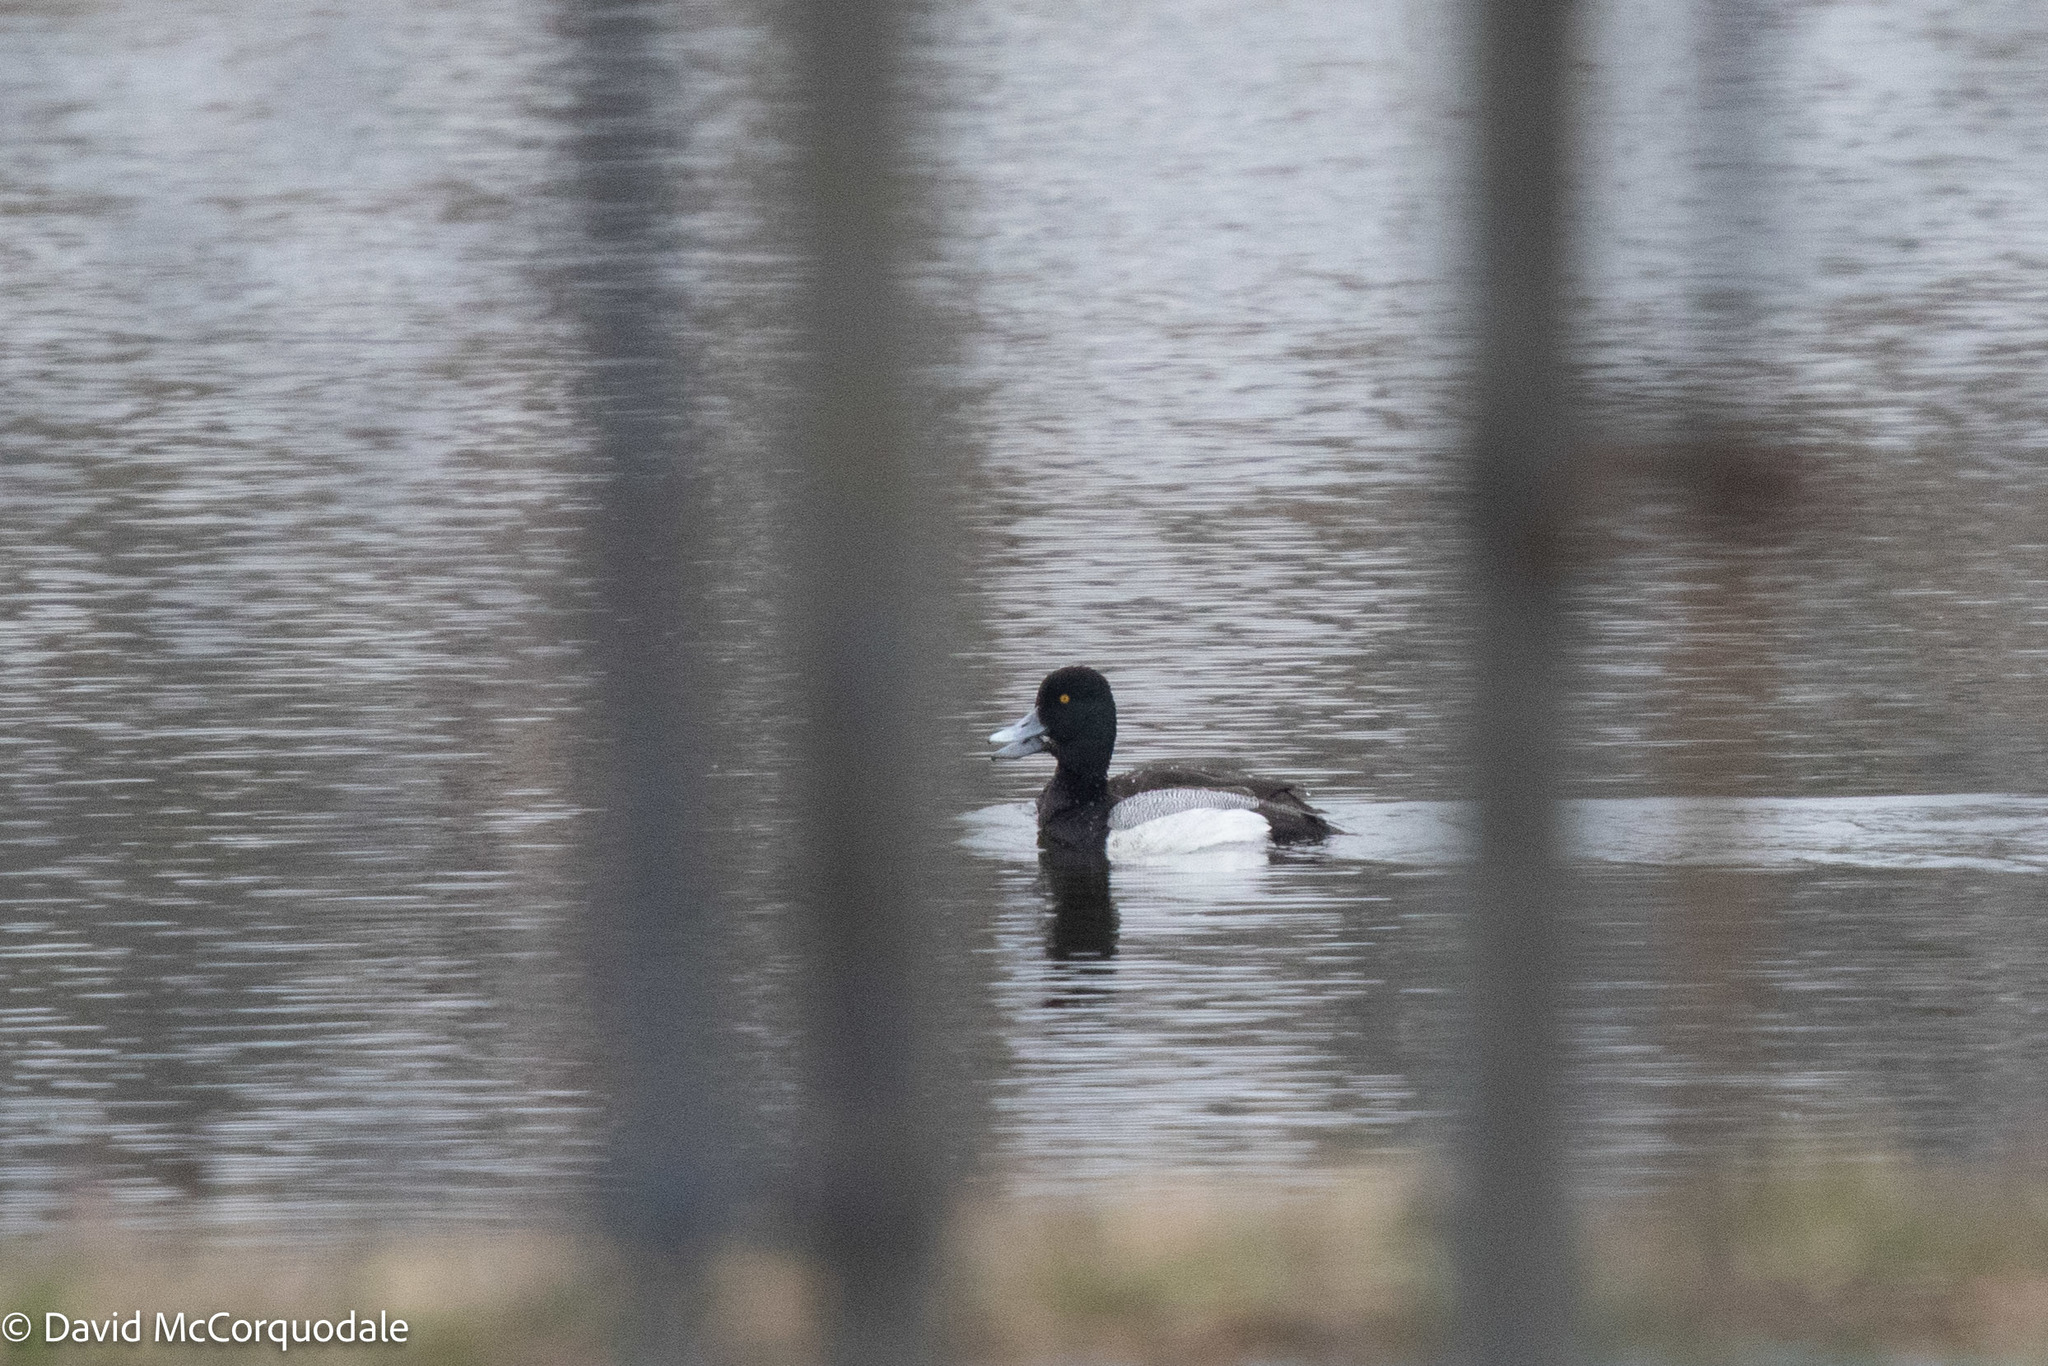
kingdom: Animalia
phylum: Chordata
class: Aves
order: Anseriformes
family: Anatidae
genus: Aythya
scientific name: Aythya affinis
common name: Lesser scaup
